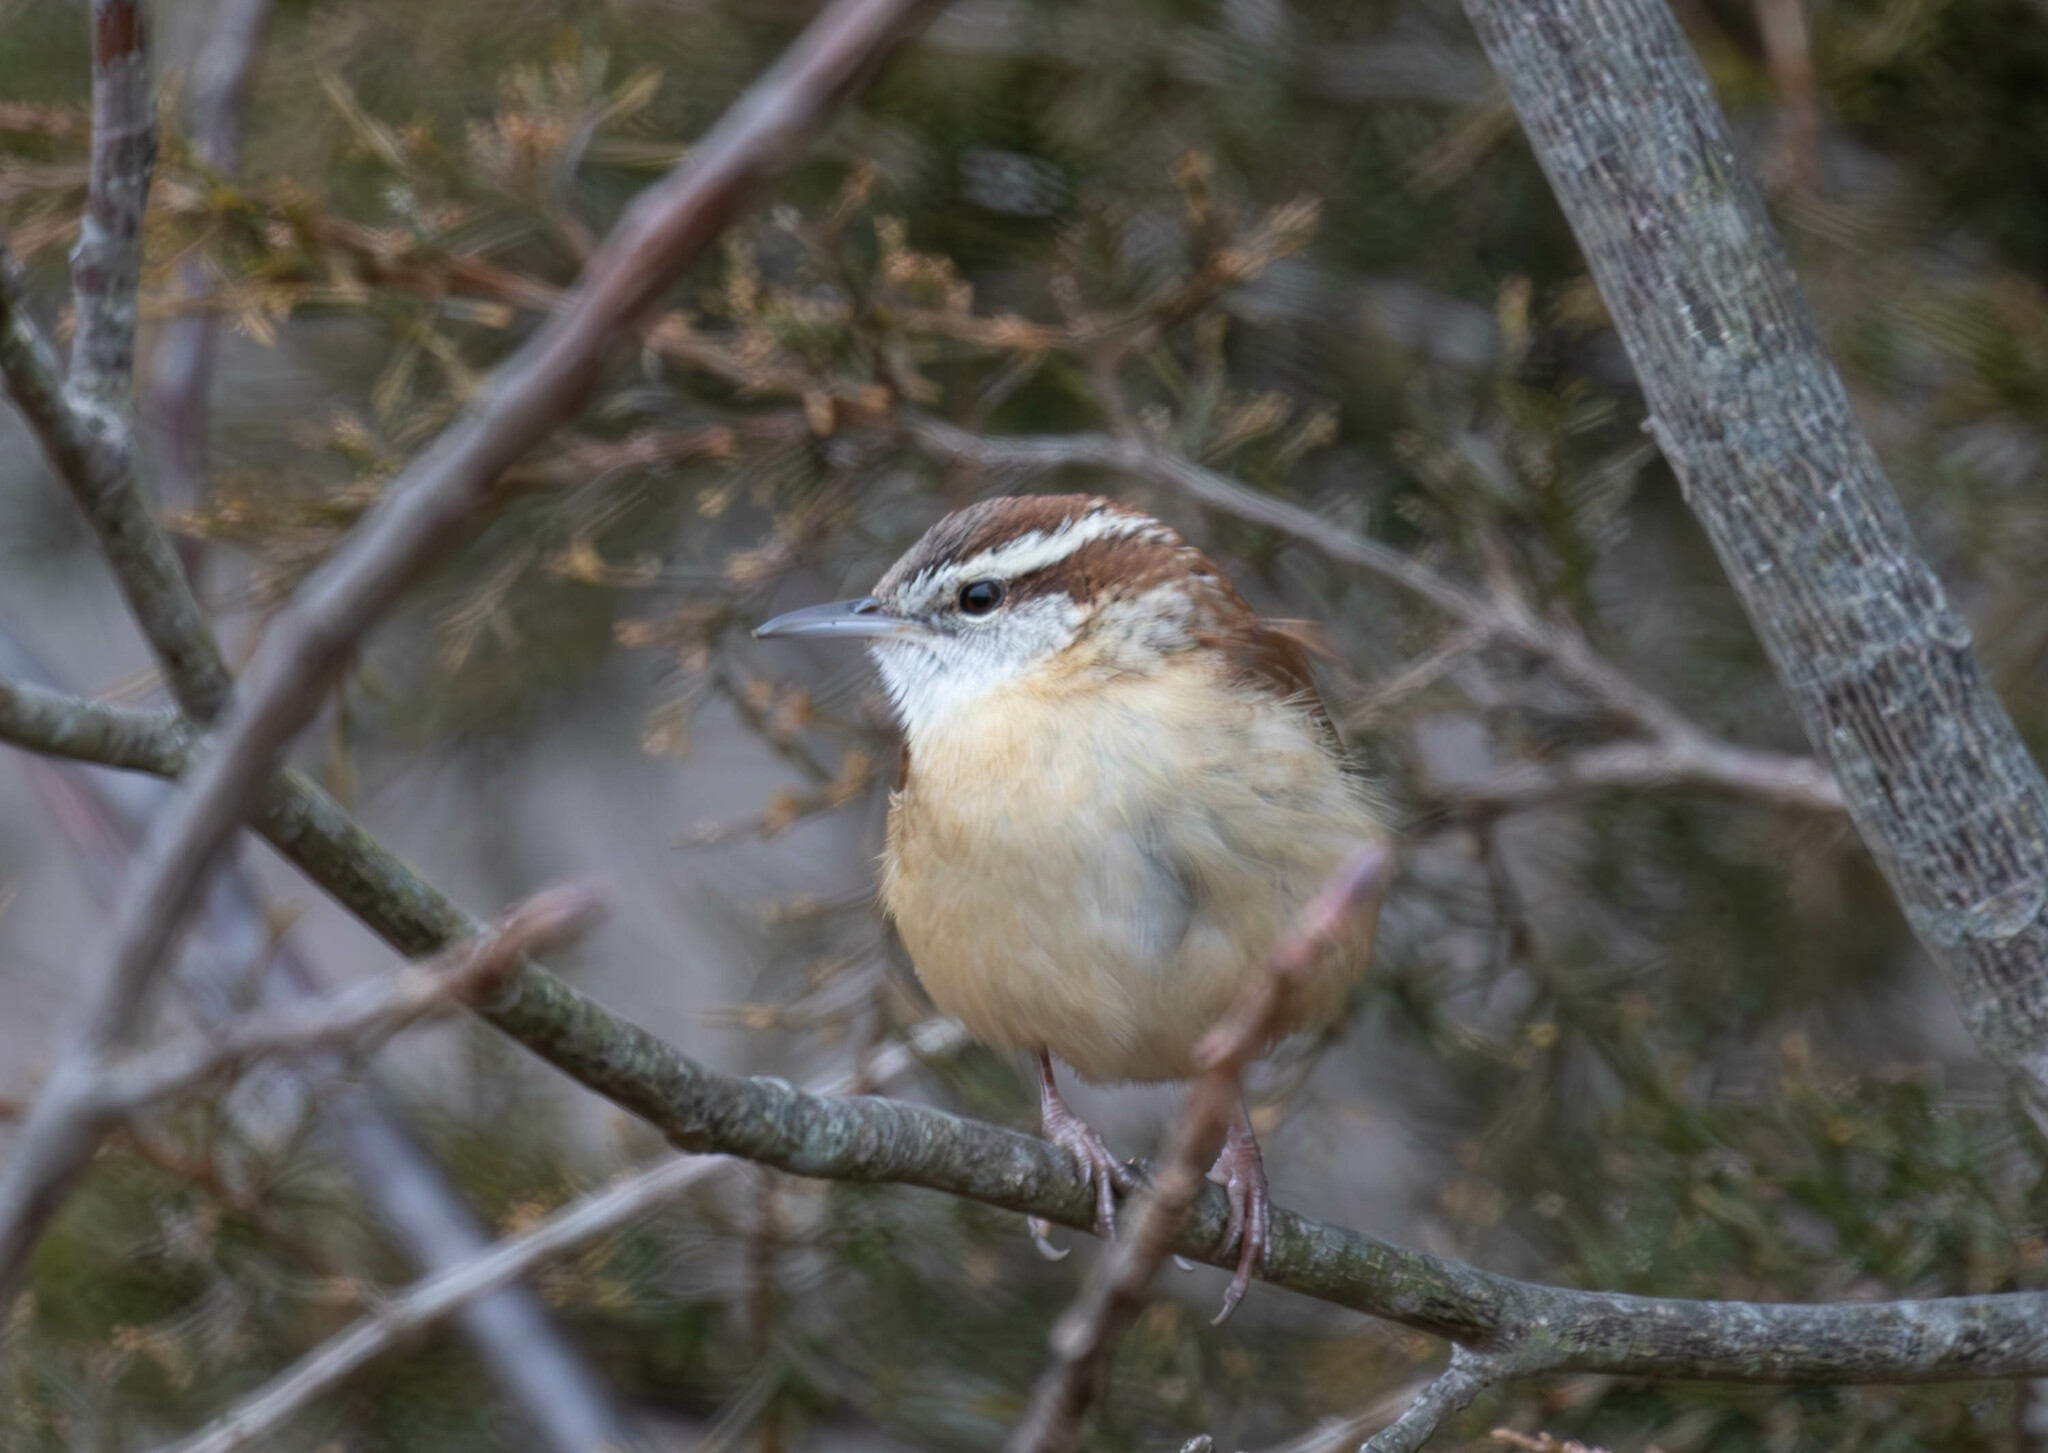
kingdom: Animalia
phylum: Chordata
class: Aves
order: Passeriformes
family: Troglodytidae
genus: Thryothorus
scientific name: Thryothorus ludovicianus
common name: Carolina wren
